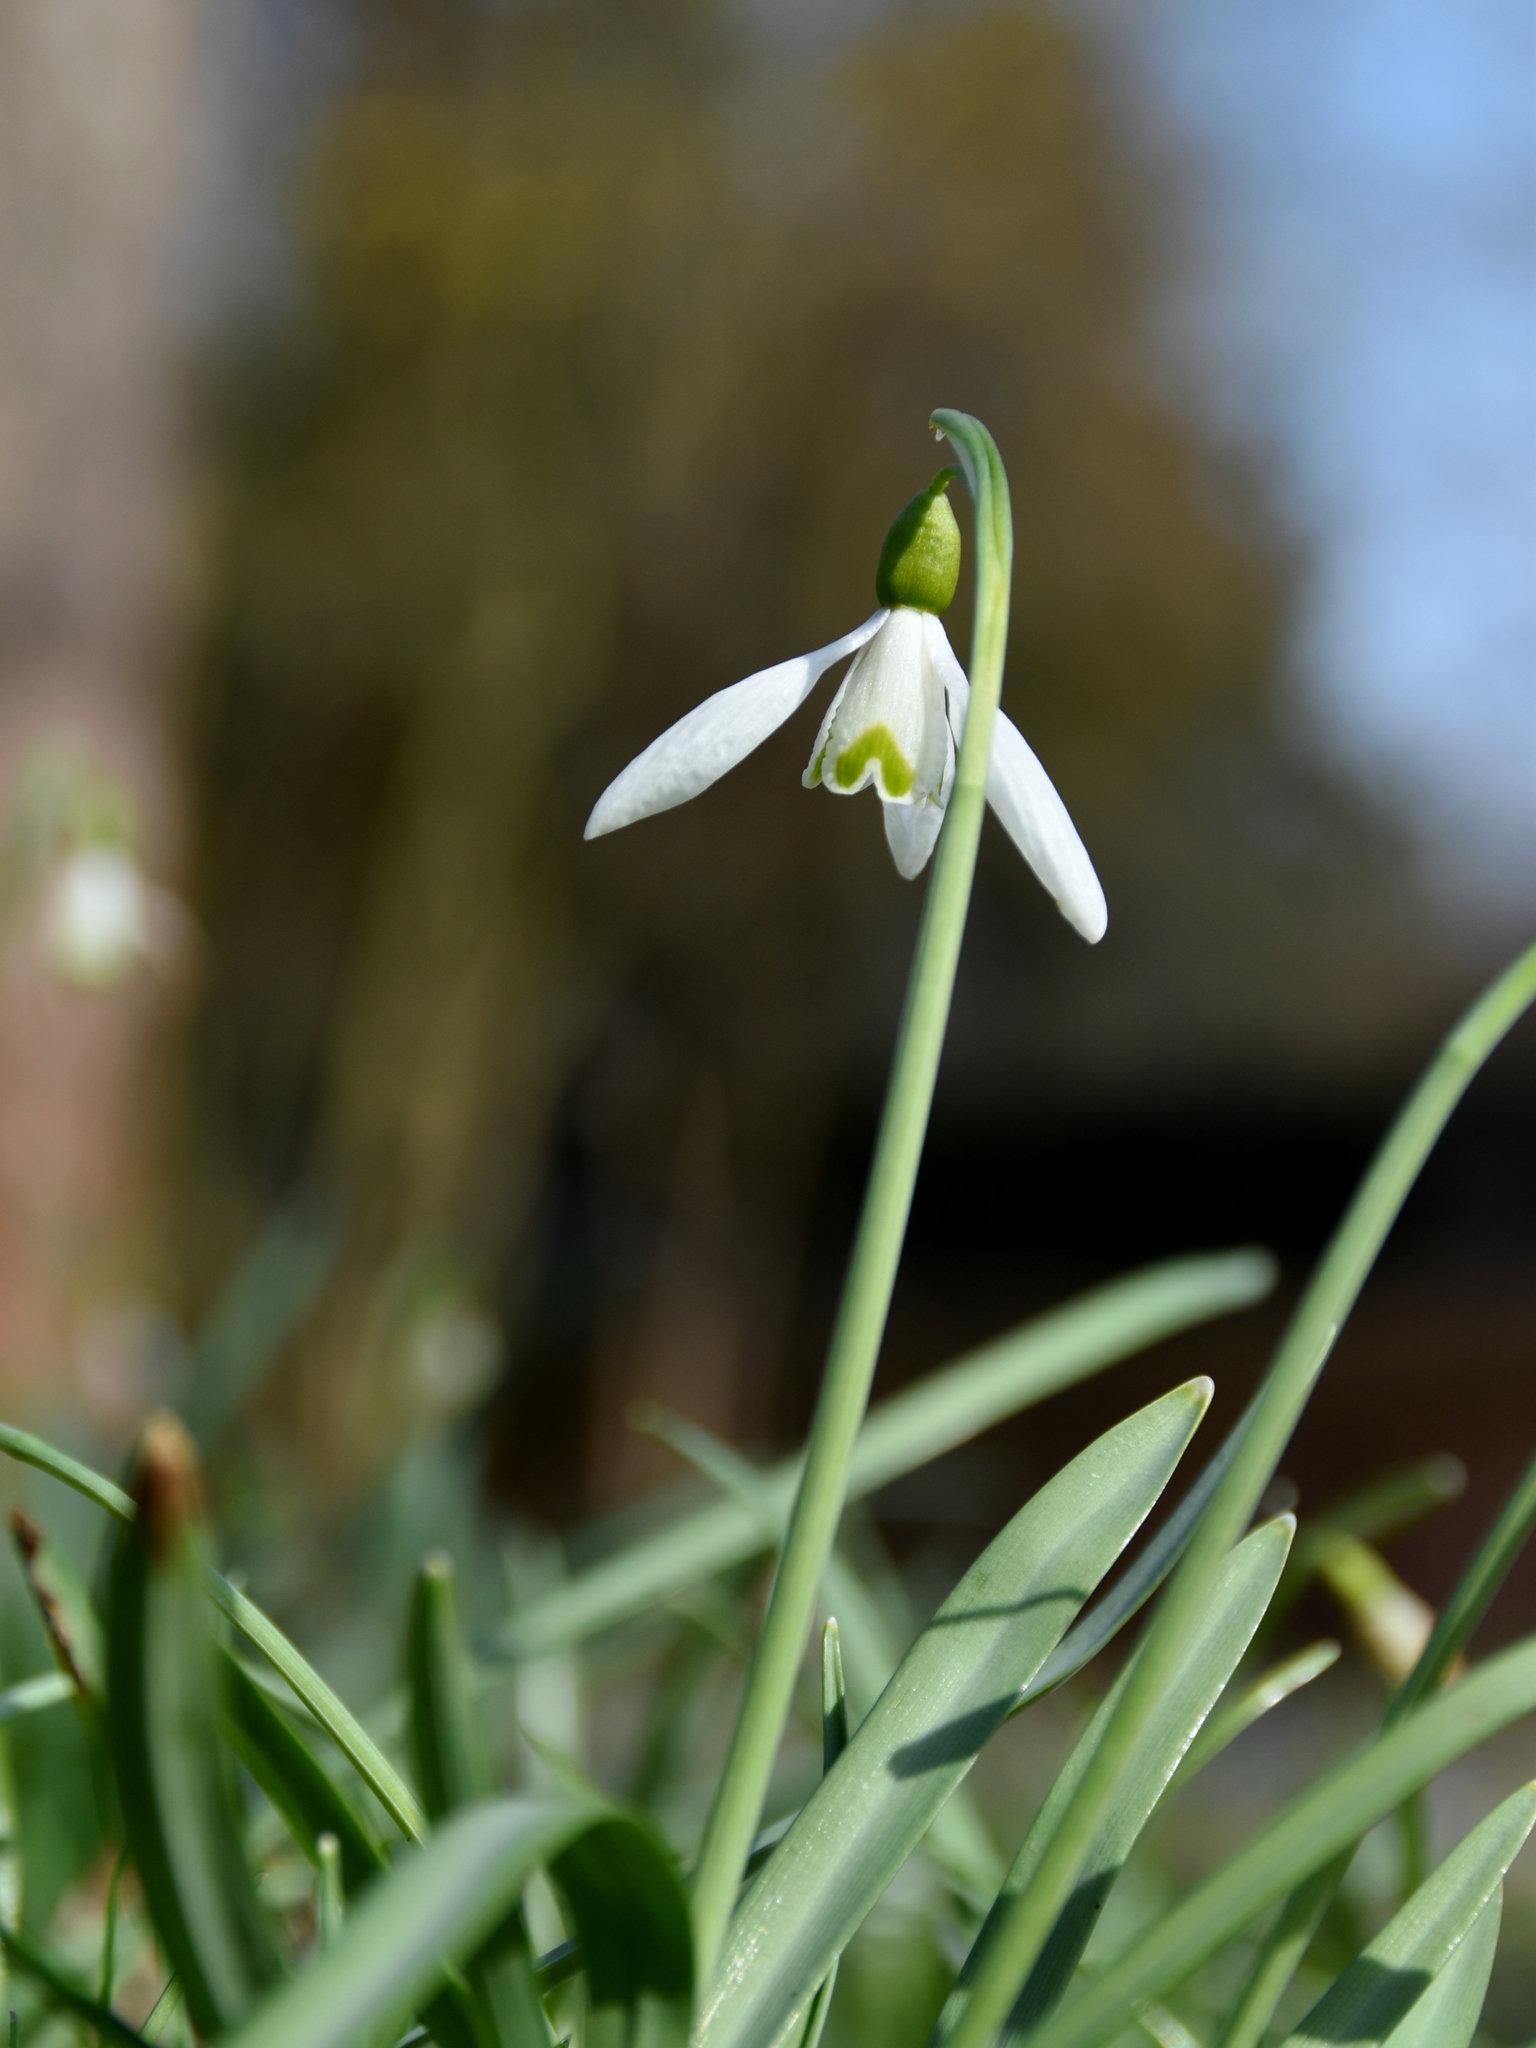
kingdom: Plantae
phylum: Tracheophyta
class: Liliopsida
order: Asparagales
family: Amaryllidaceae
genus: Galanthus
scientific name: Galanthus nivalis
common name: Snowdrop
